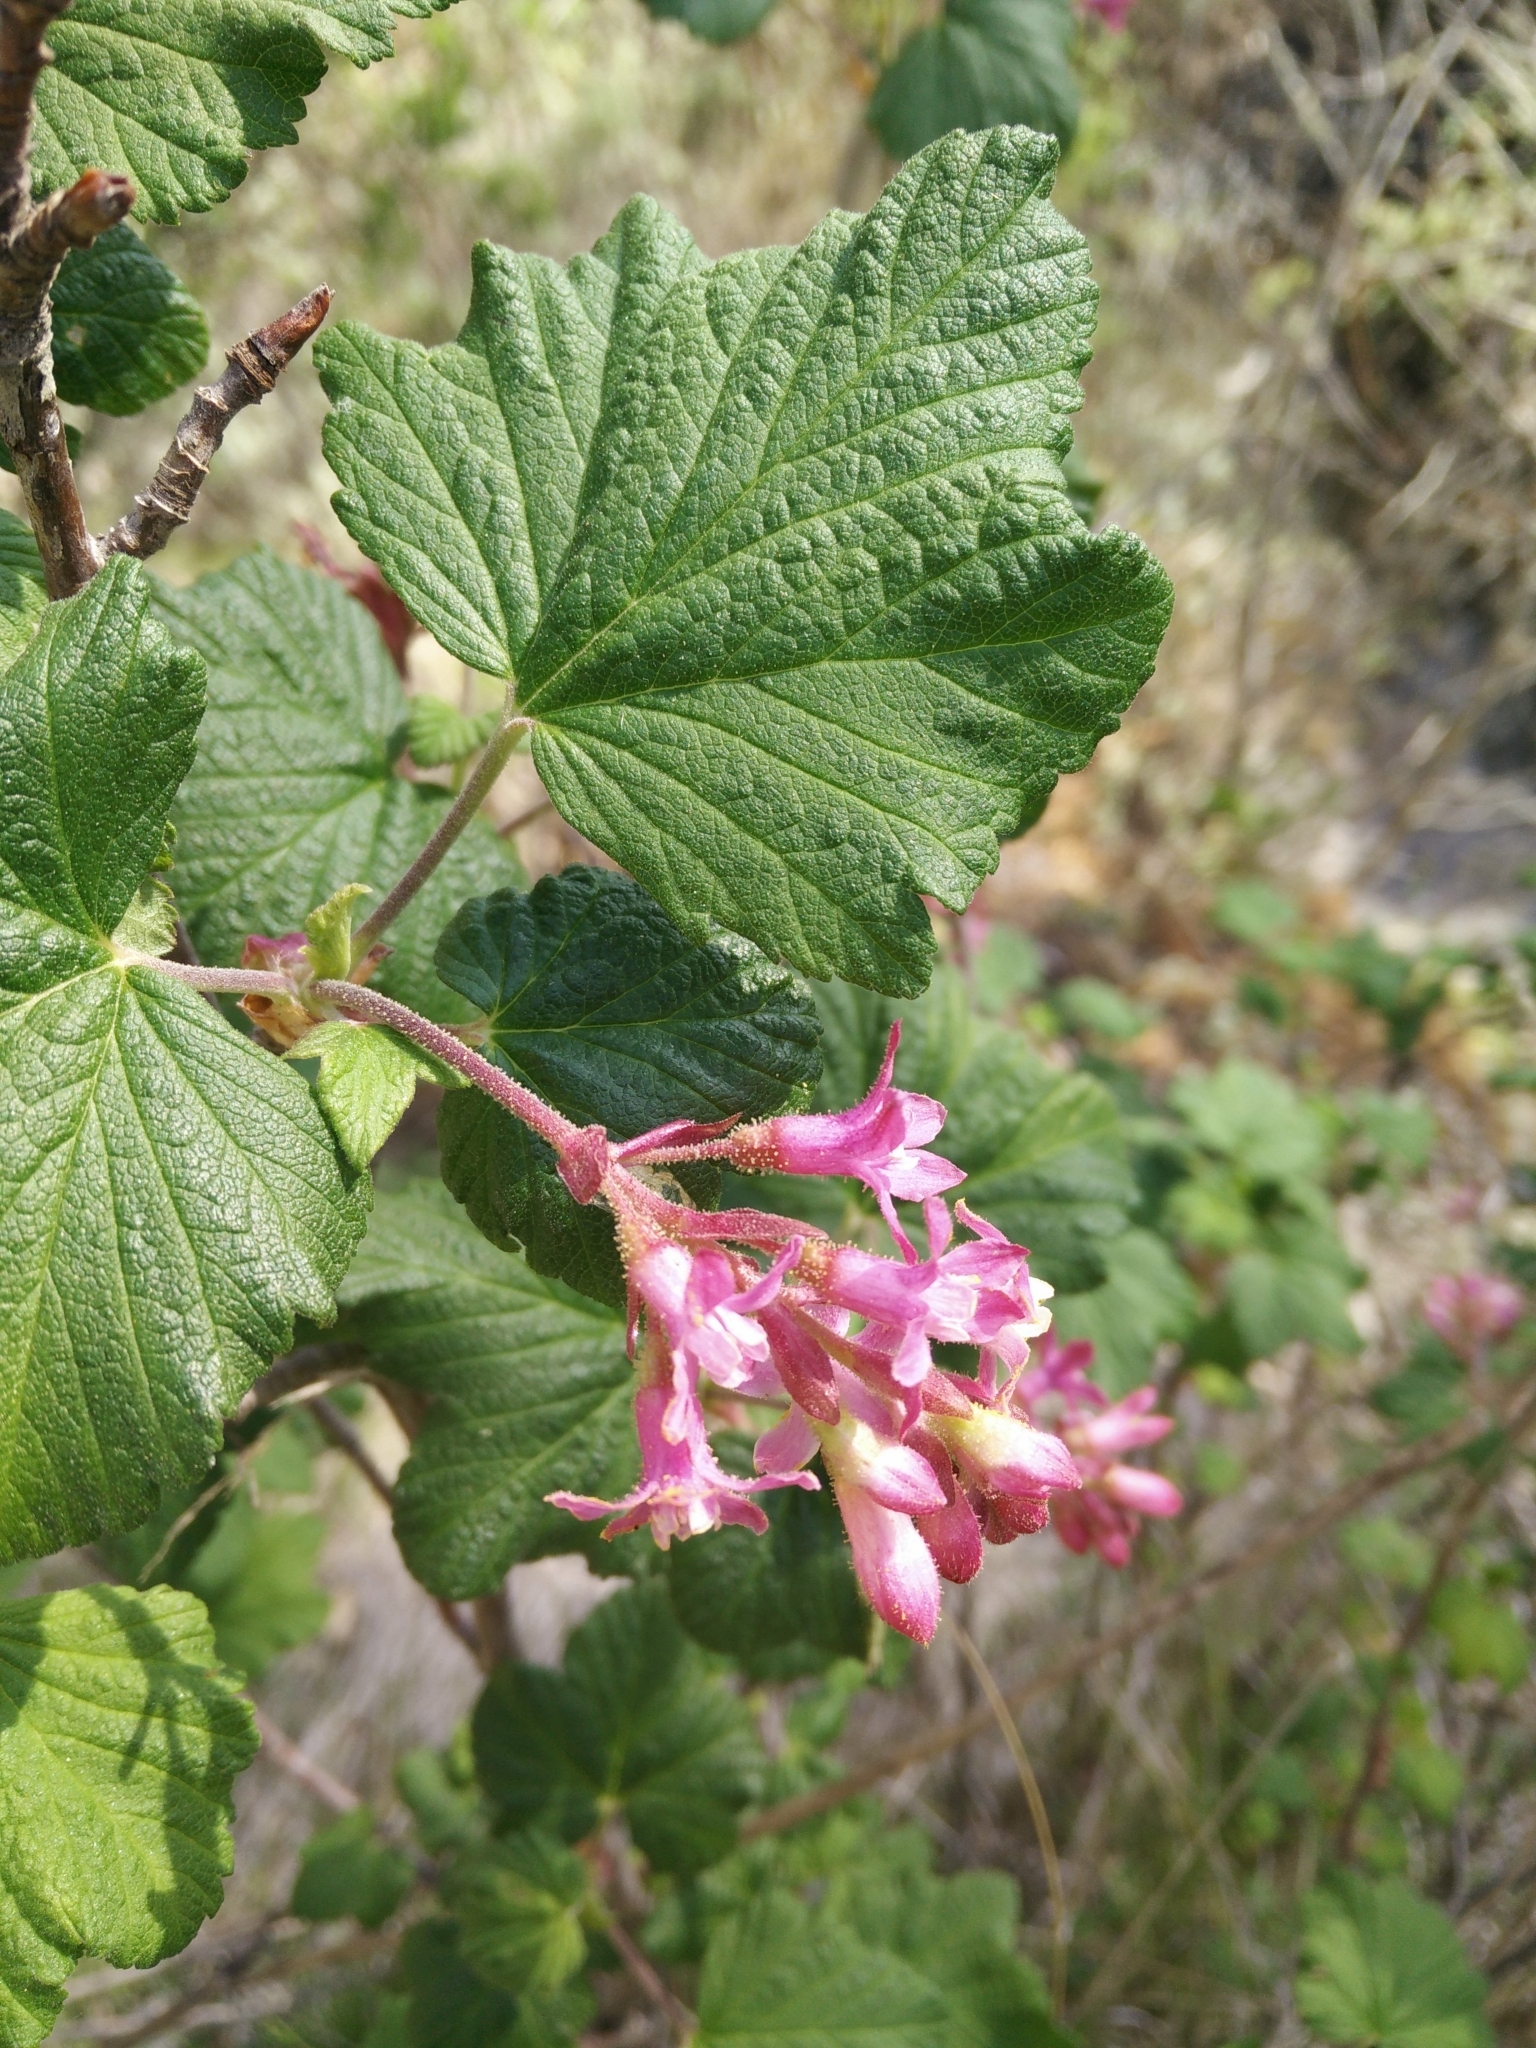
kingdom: Plantae
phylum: Tracheophyta
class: Magnoliopsida
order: Saxifragales
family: Grossulariaceae
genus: Ribes
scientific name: Ribes sanguineum
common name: Flowering currant
